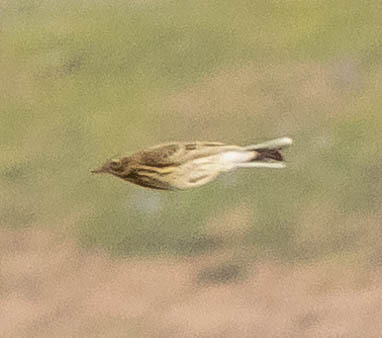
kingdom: Animalia
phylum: Chordata
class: Aves
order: Passeriformes
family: Motacillidae
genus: Anthus
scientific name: Anthus pratensis
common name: Meadow pipit
